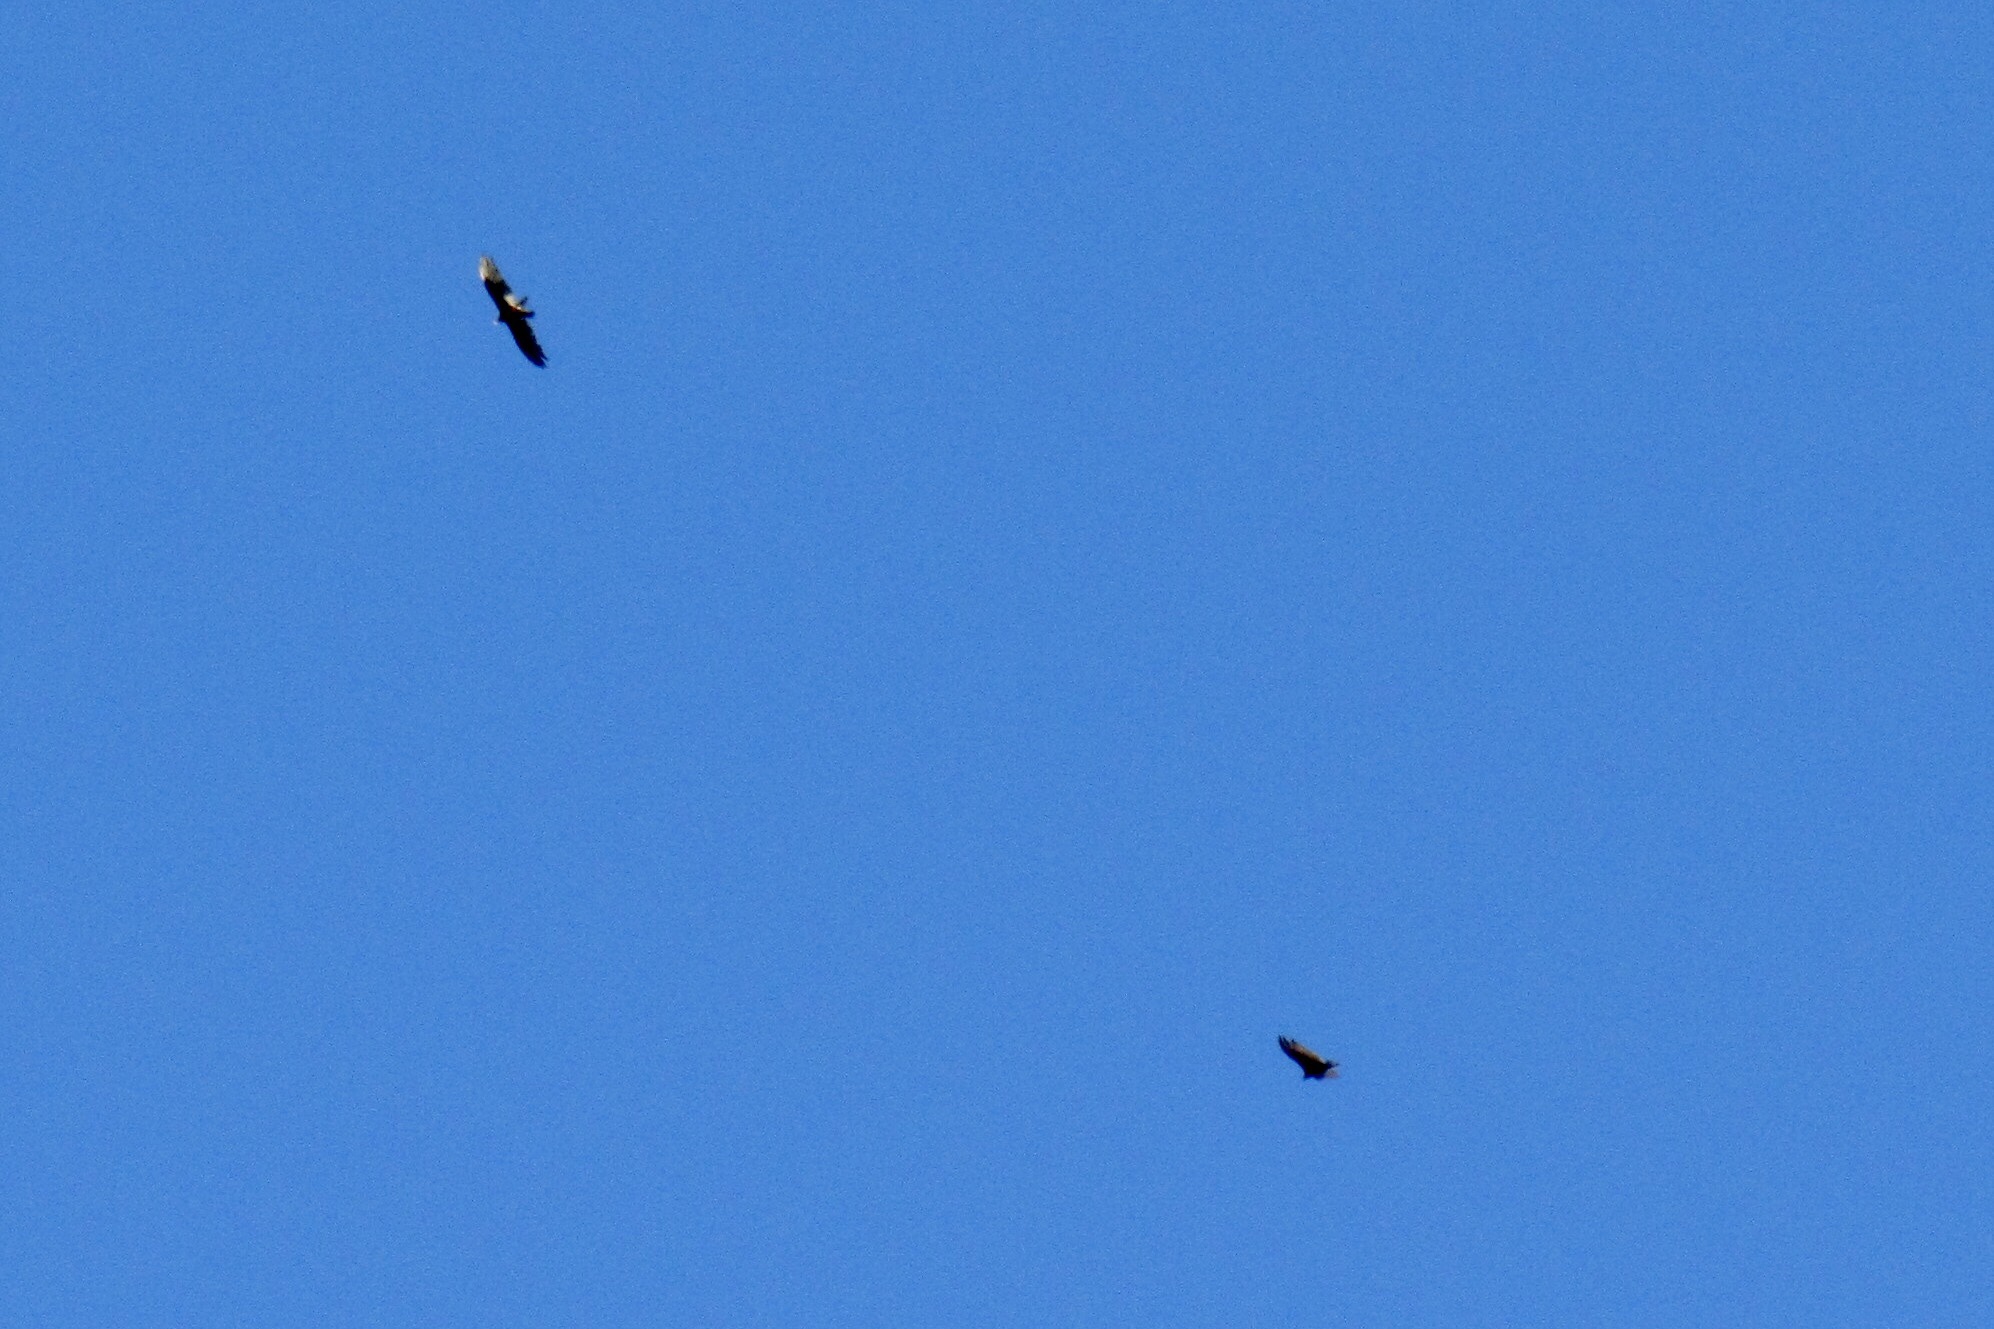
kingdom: Animalia
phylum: Chordata
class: Aves
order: Accipitriformes
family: Cathartidae
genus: Cathartes
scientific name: Cathartes aura
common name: Turkey vulture
